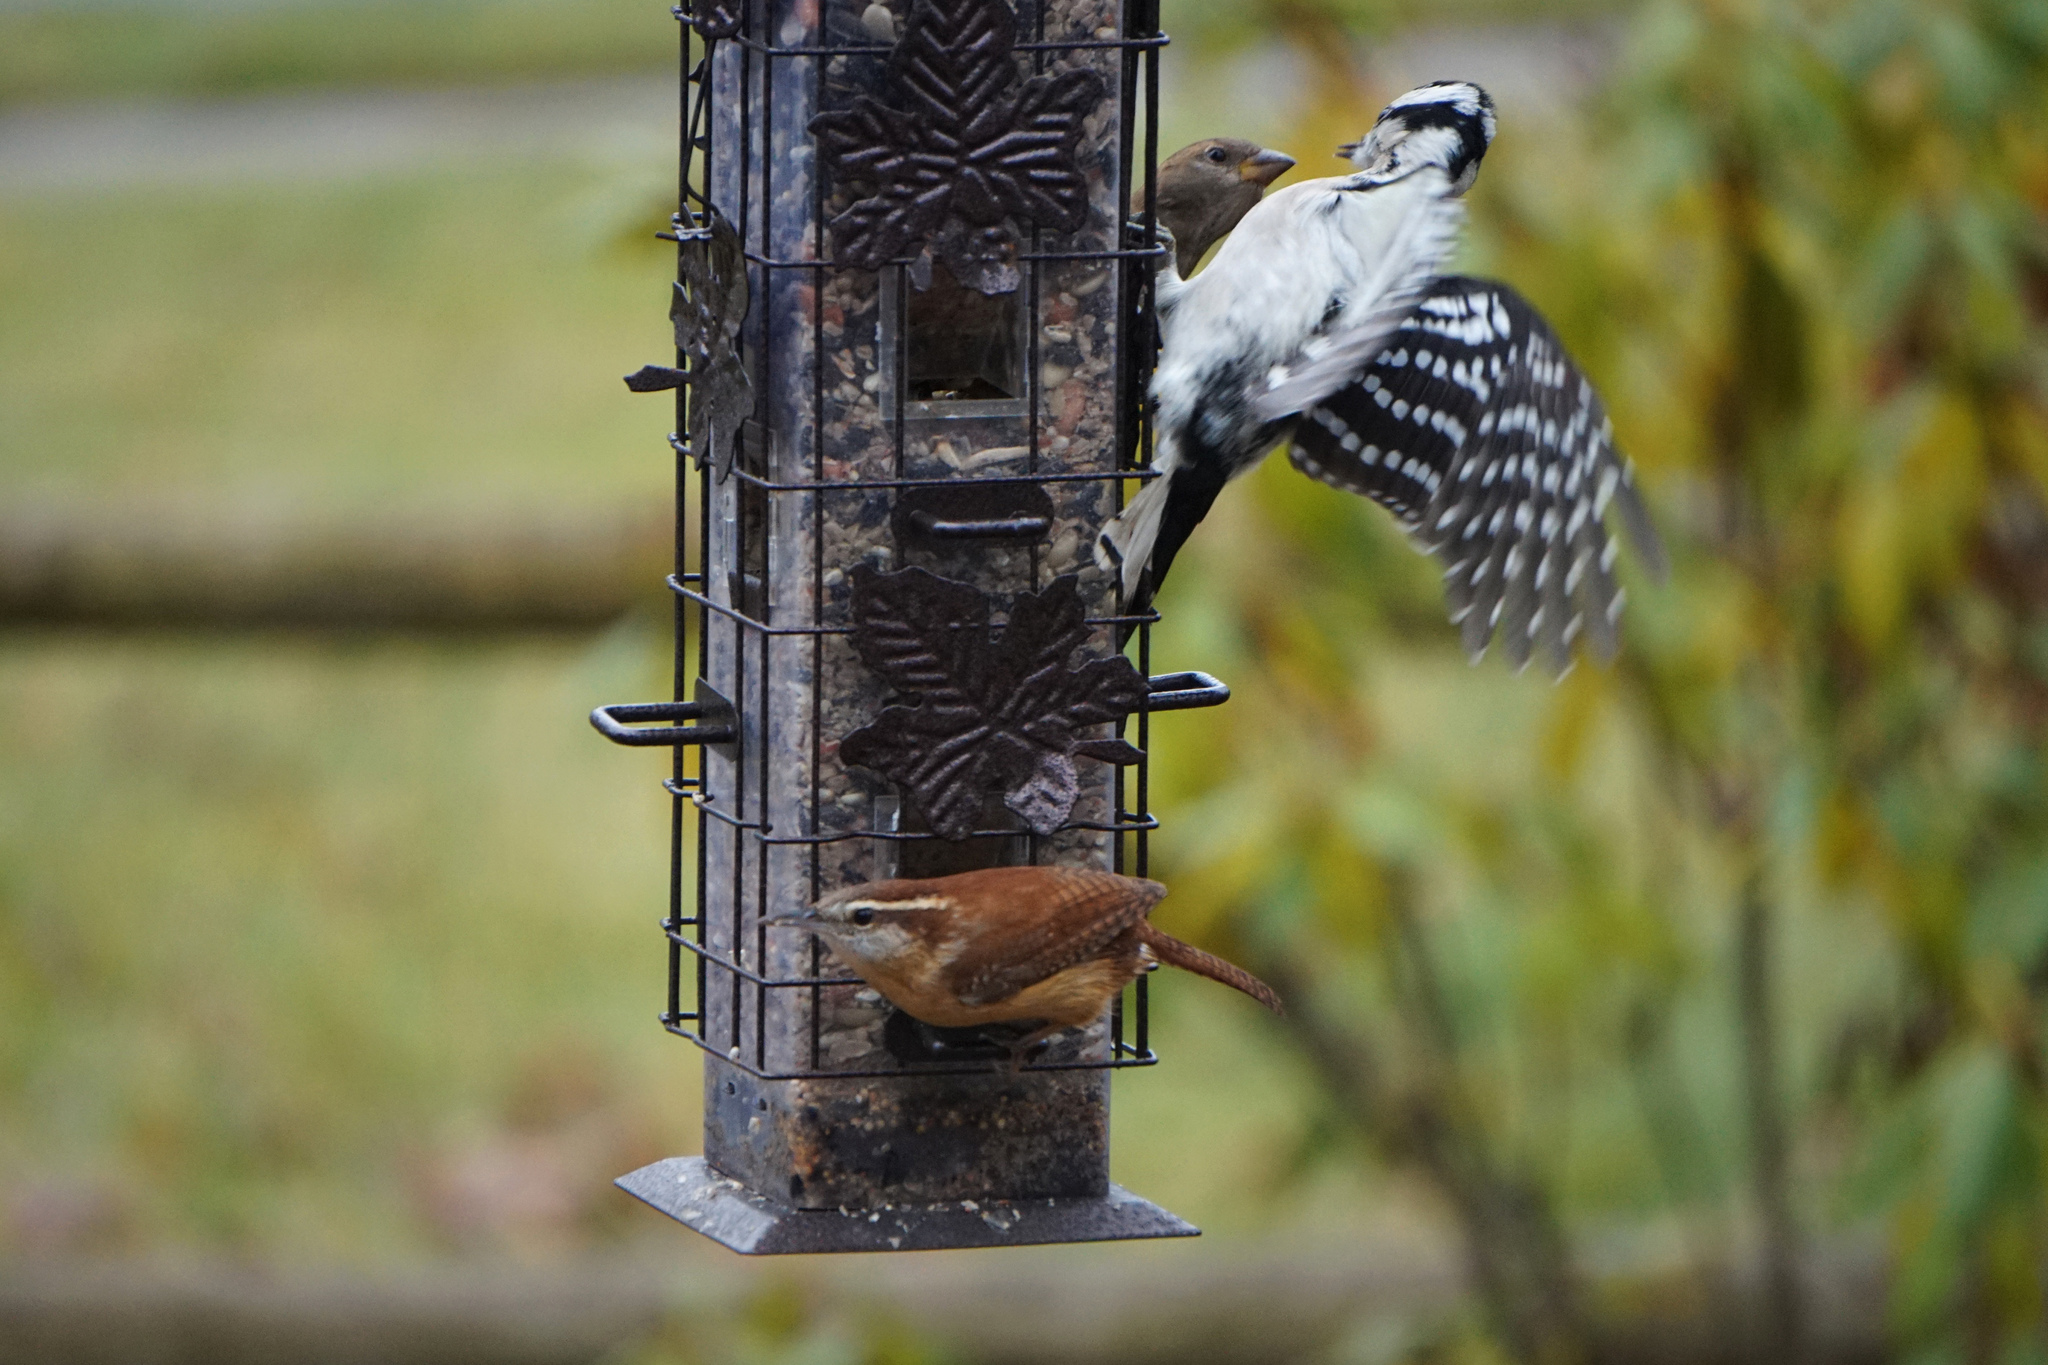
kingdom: Animalia
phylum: Chordata
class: Aves
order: Passeriformes
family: Troglodytidae
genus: Thryothorus
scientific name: Thryothorus ludovicianus
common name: Carolina wren
